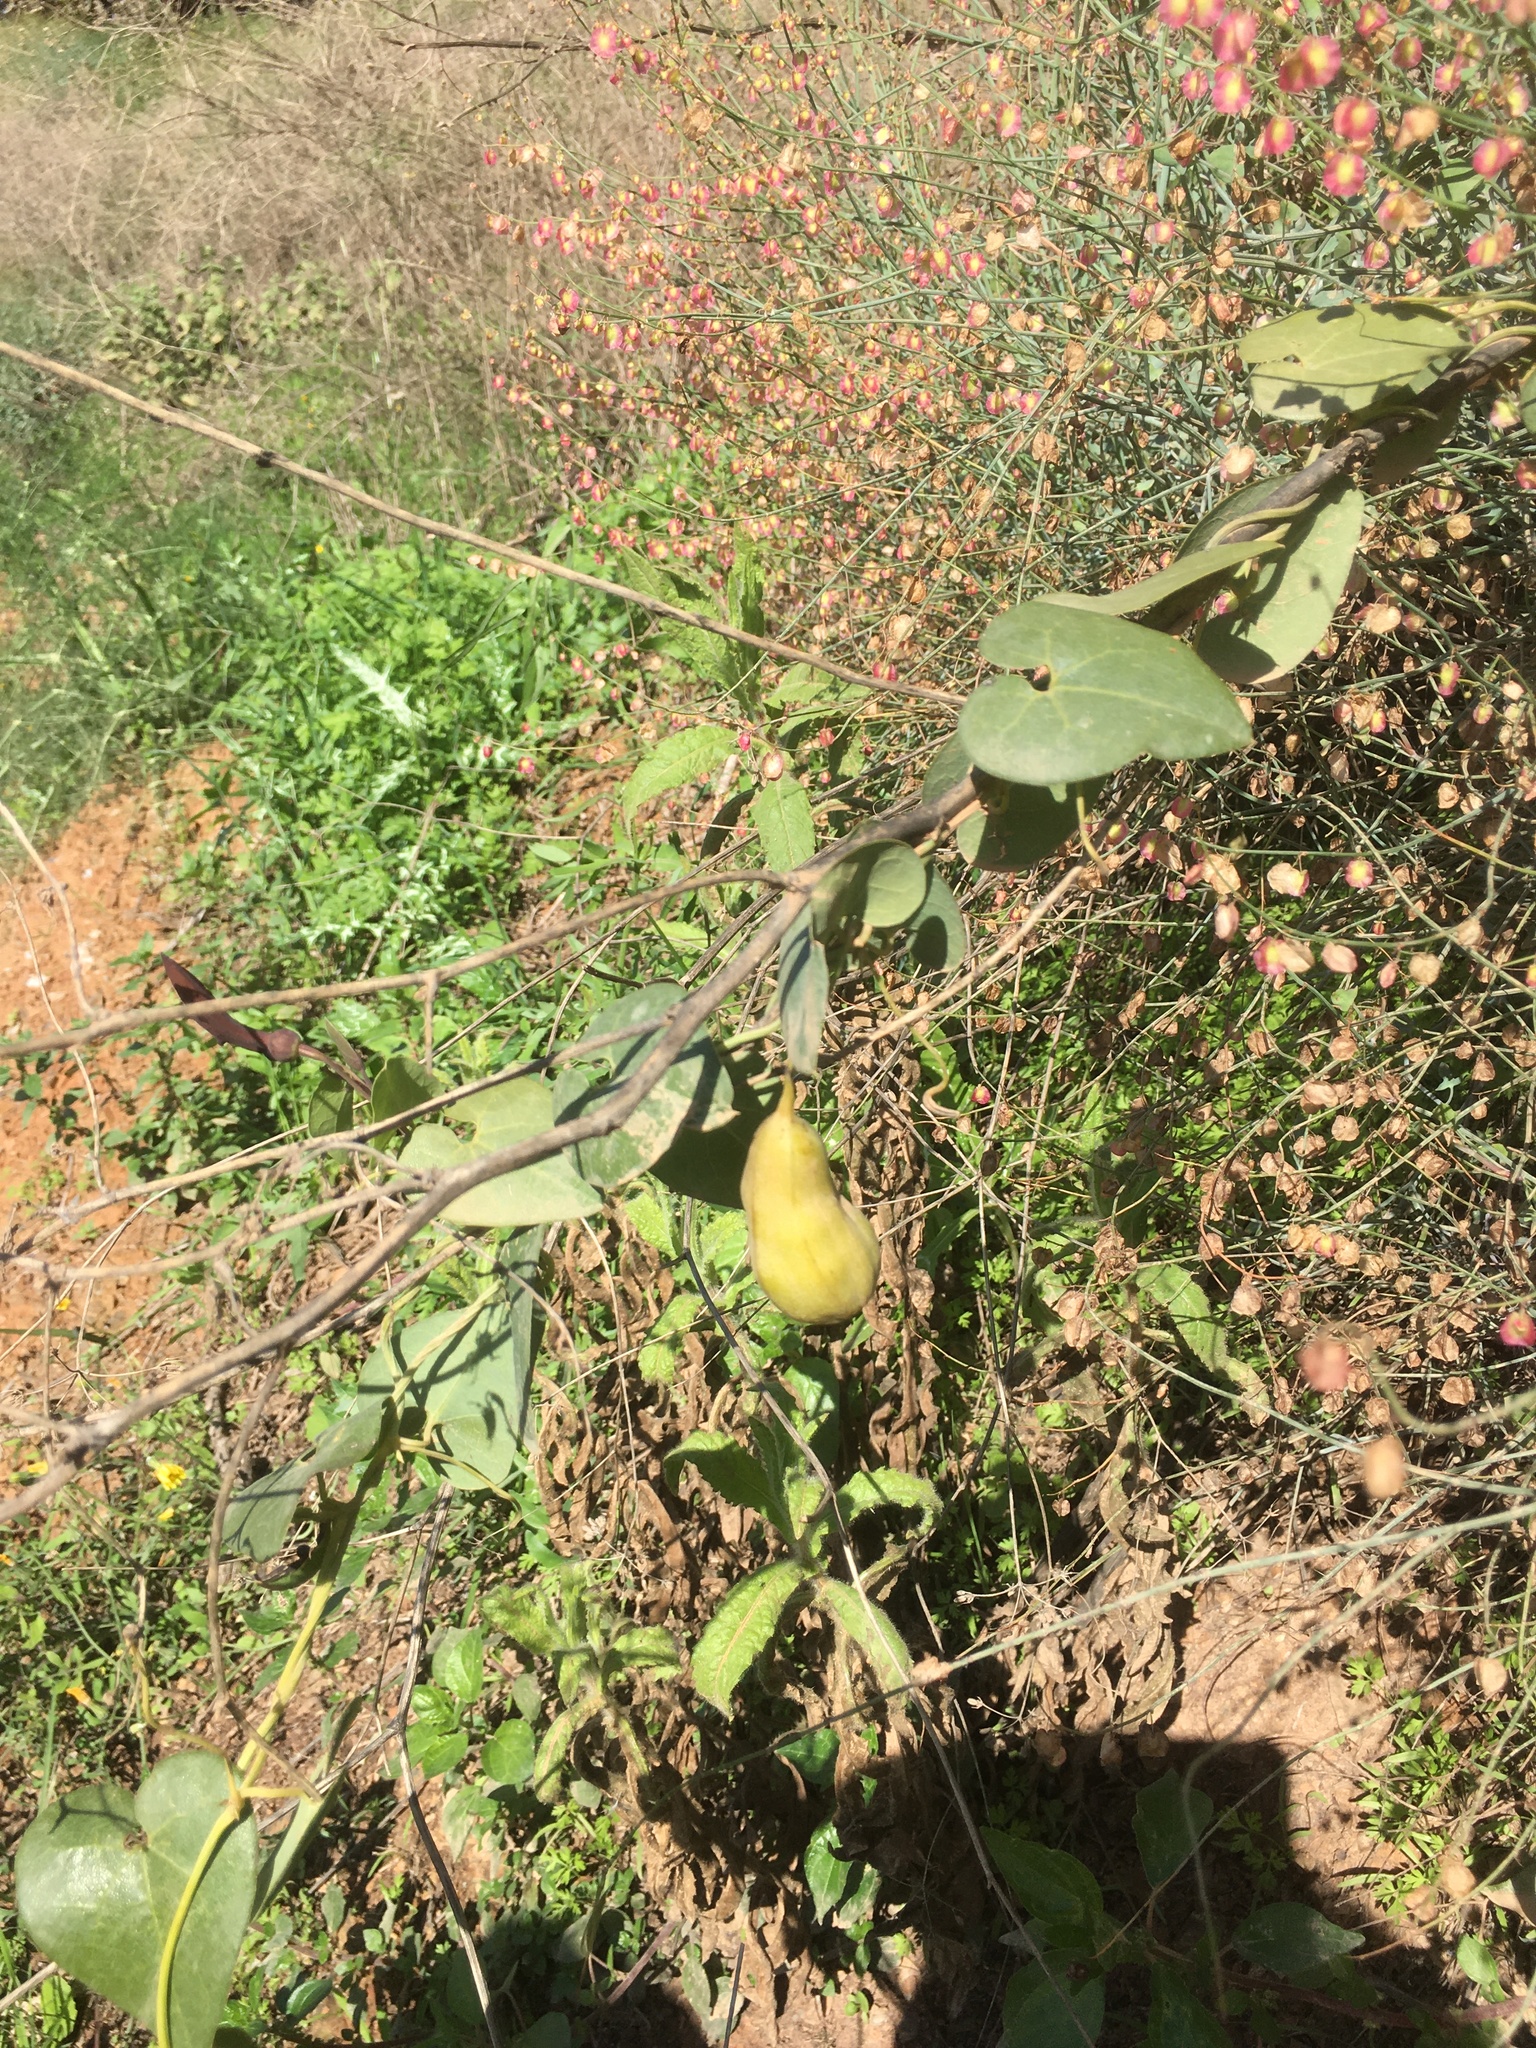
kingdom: Plantae
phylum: Tracheophyta
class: Magnoliopsida
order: Piperales
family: Aristolochiaceae
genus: Aristolochia
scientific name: Aristolochia baetica
